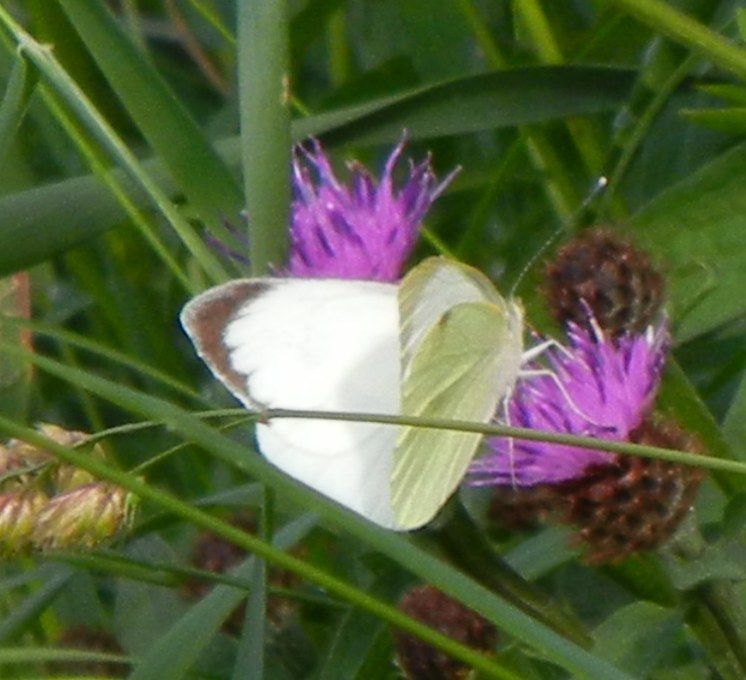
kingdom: Animalia
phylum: Arthropoda
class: Insecta
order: Lepidoptera
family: Pieridae
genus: Pieris
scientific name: Pieris brassicae
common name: Large white
